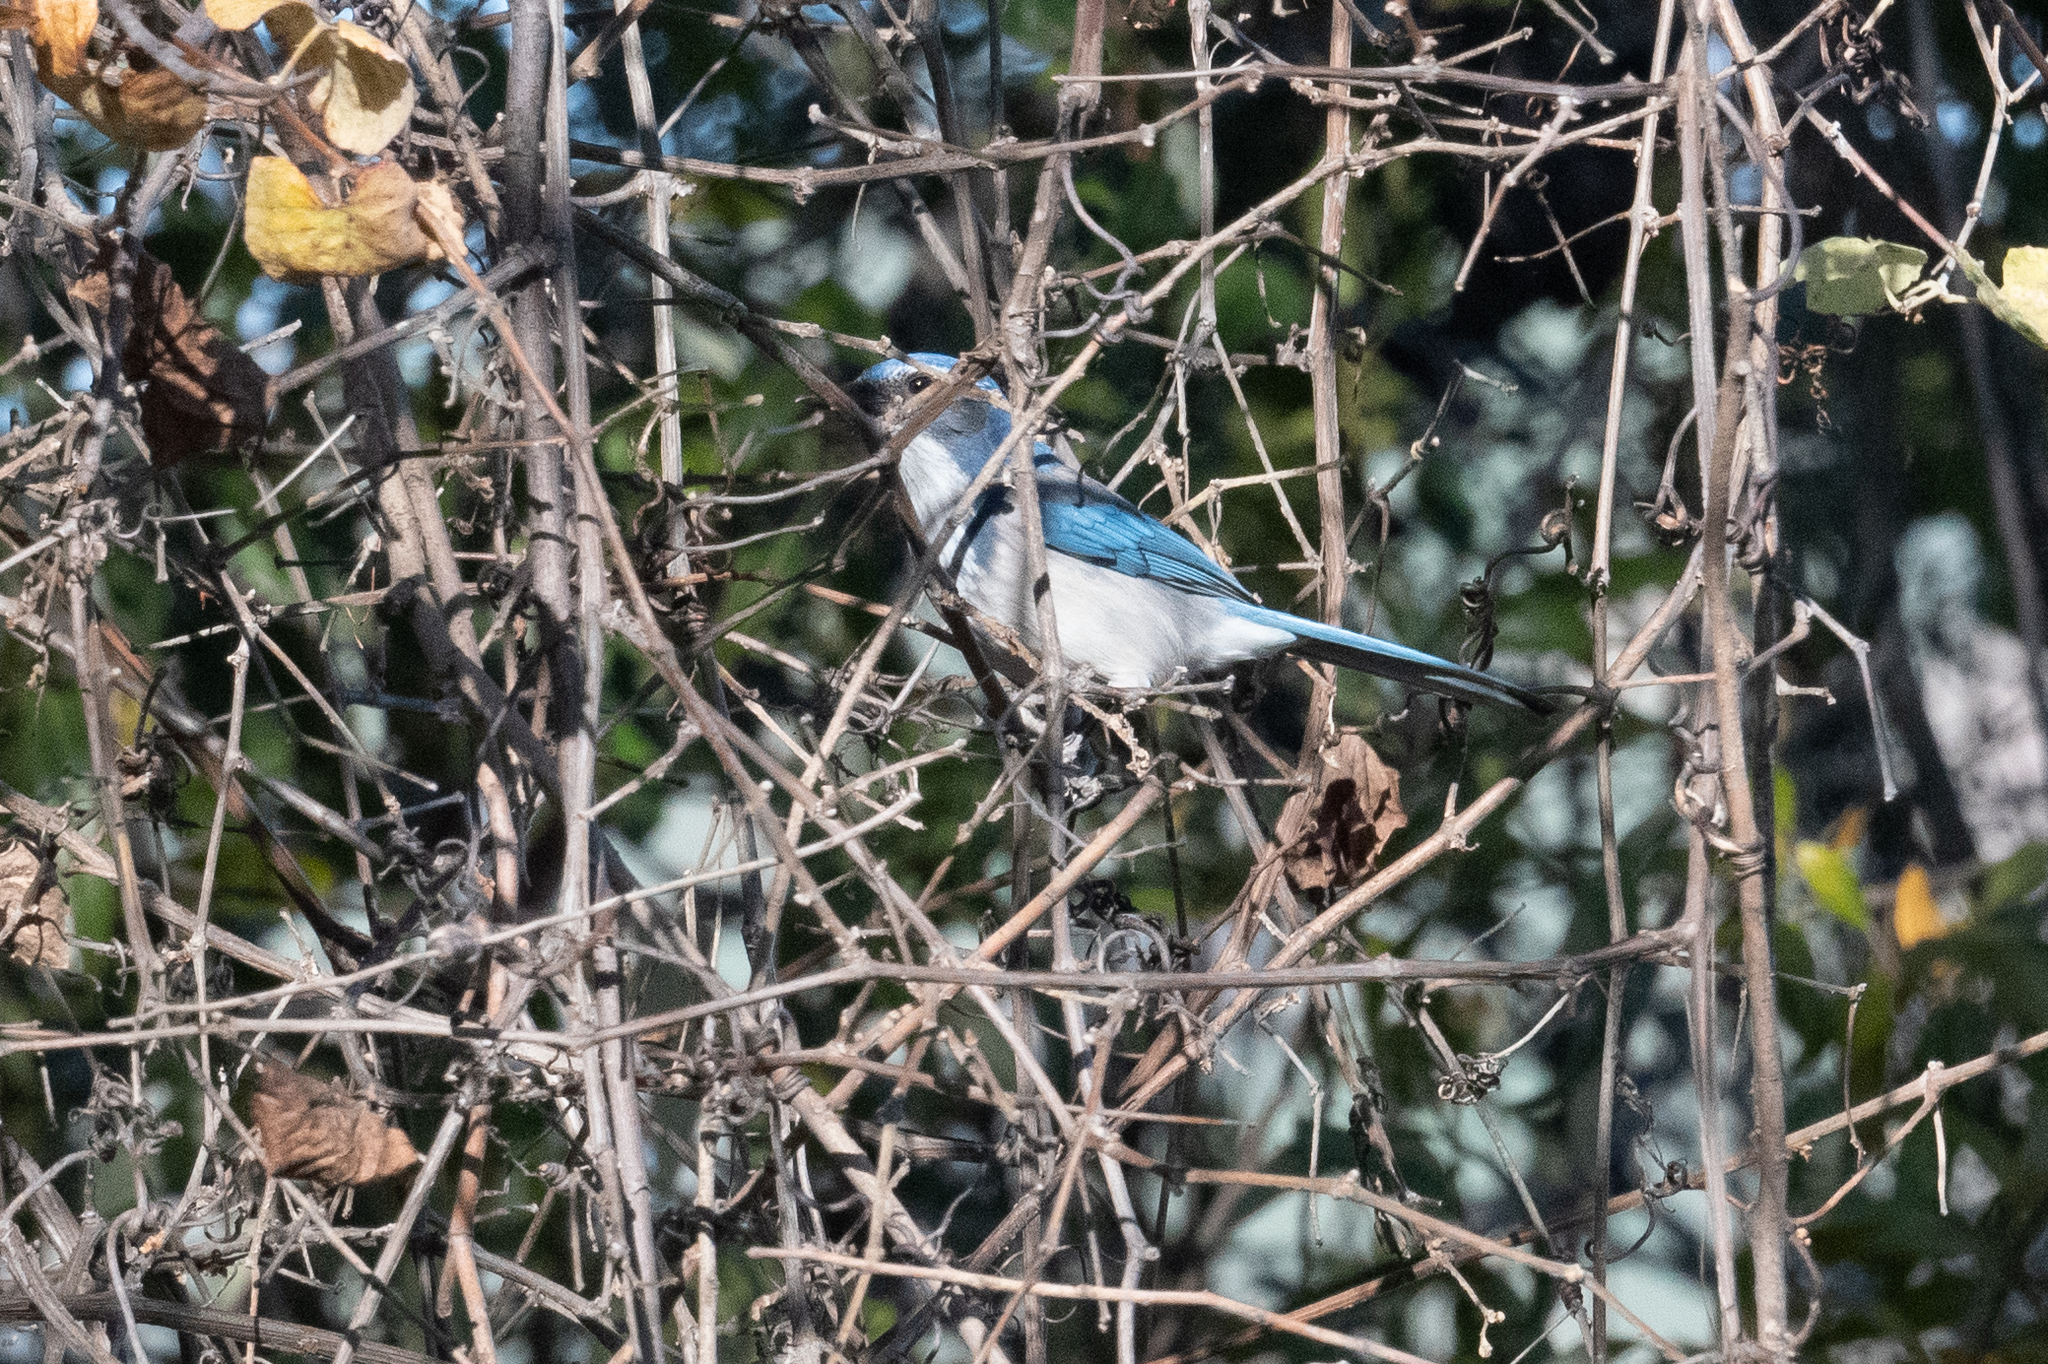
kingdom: Animalia
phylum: Chordata
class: Aves
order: Passeriformes
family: Corvidae
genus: Aphelocoma
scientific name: Aphelocoma californica
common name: California scrub-jay
